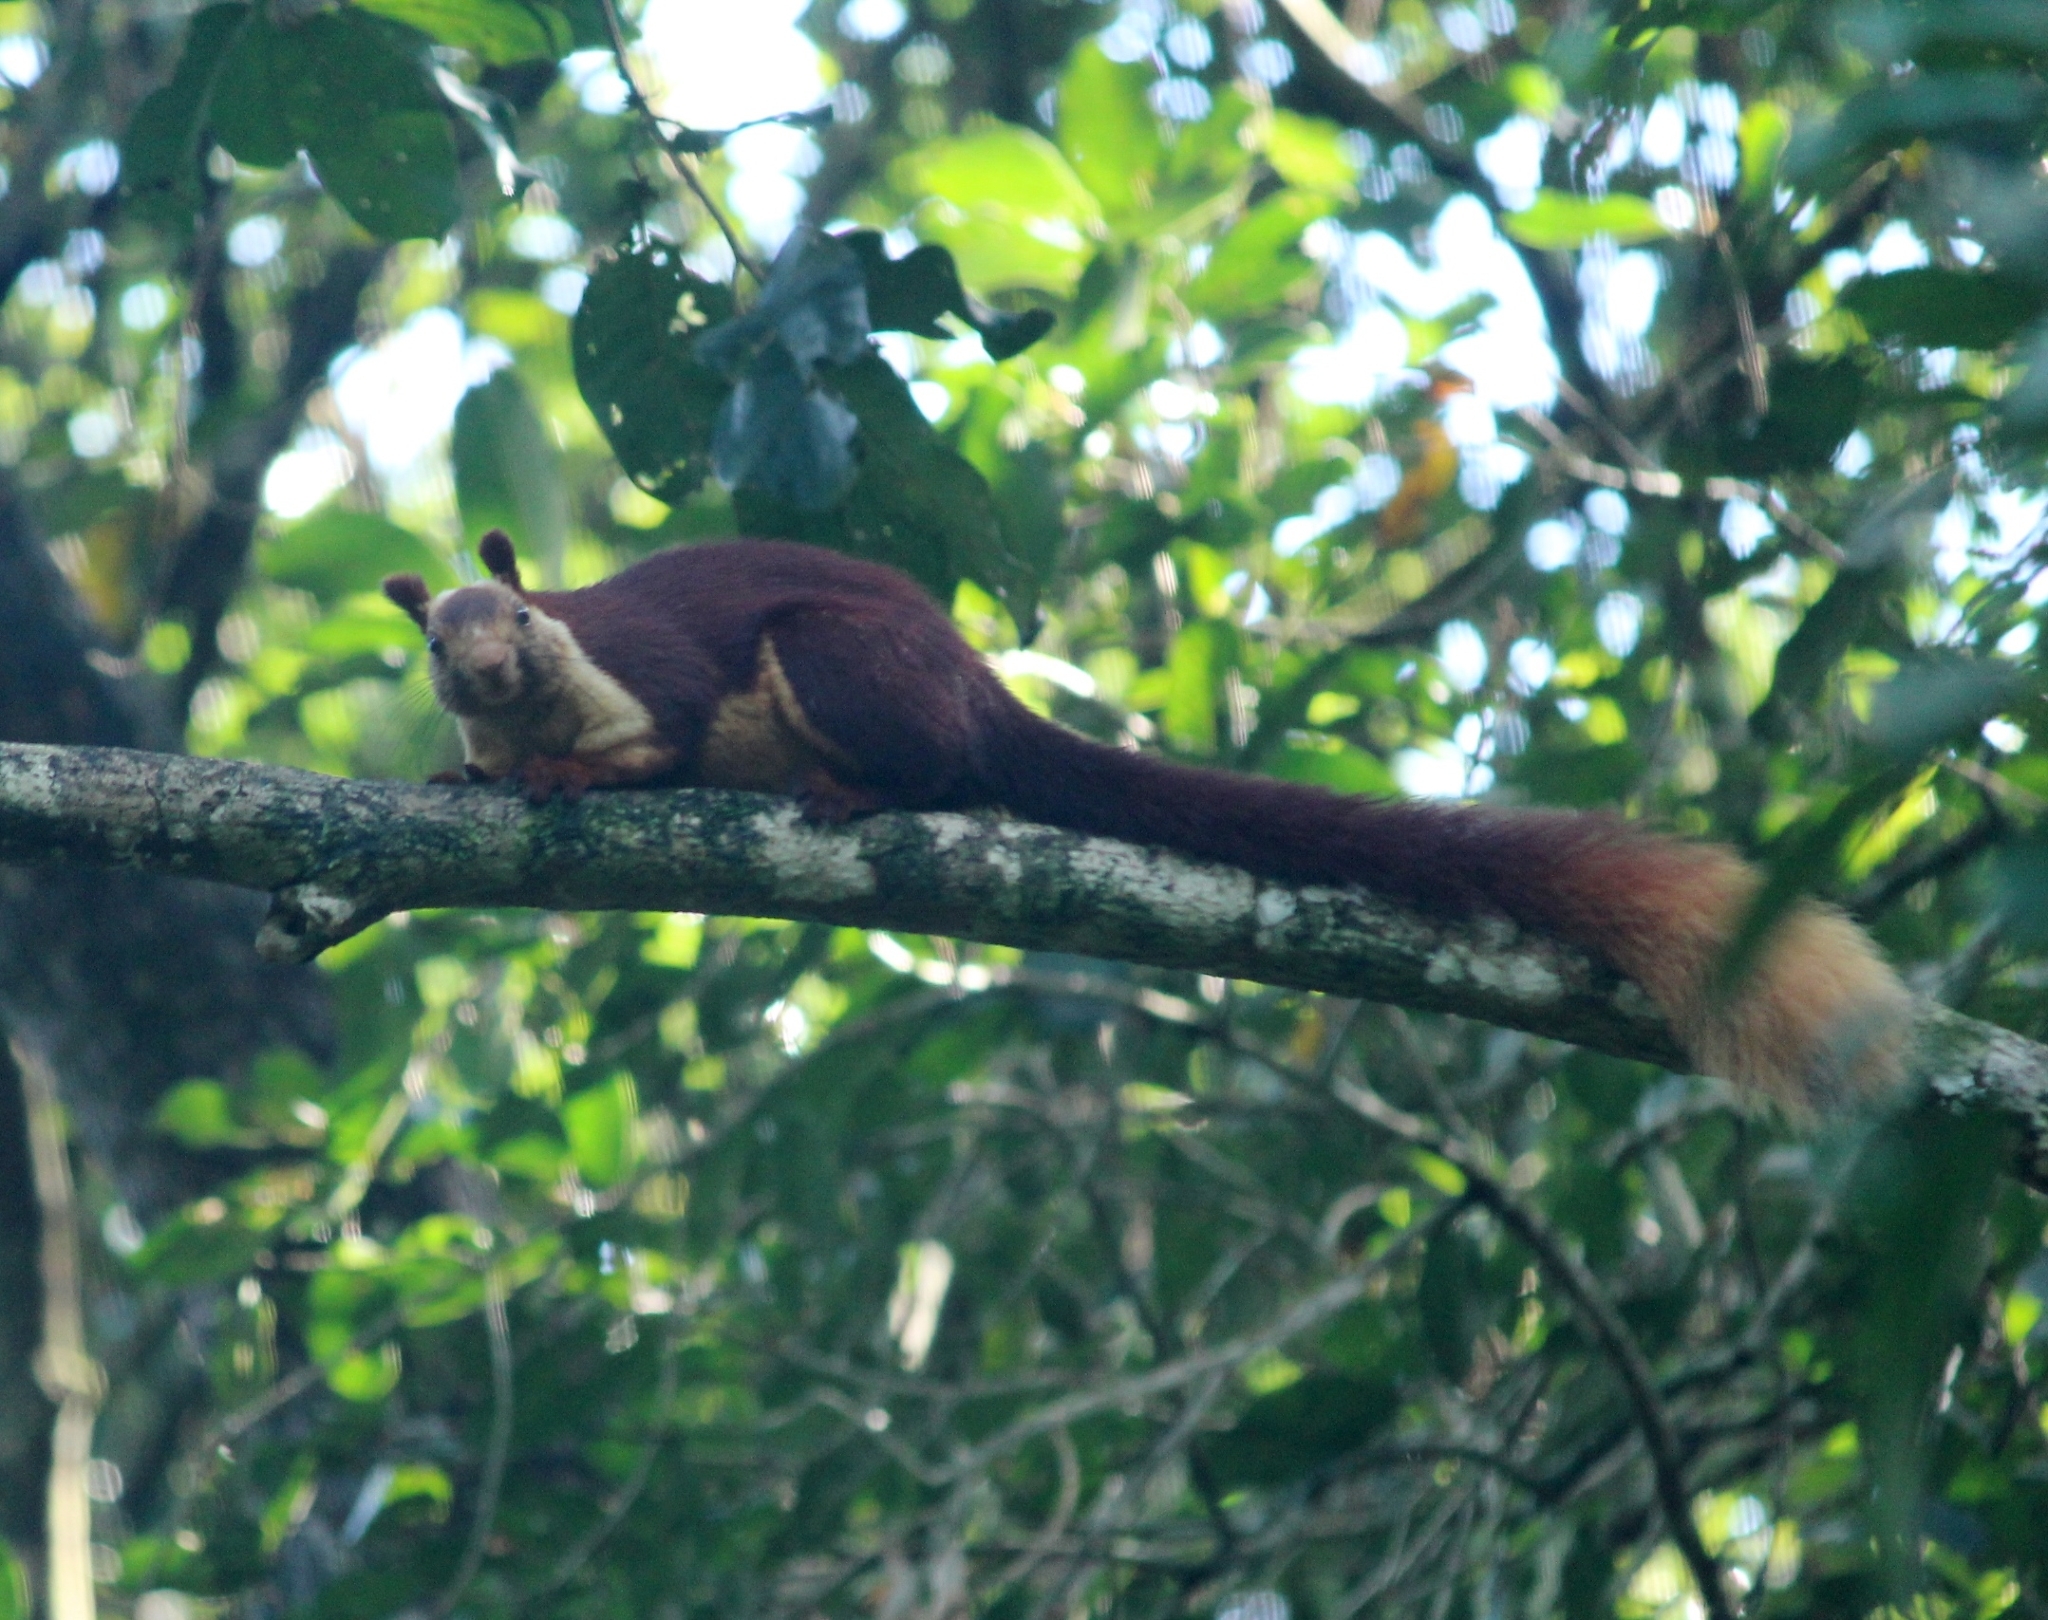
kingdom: Animalia
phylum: Chordata
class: Mammalia
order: Rodentia
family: Sciuridae
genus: Ratufa
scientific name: Ratufa indica
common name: Indian giant squirrel
